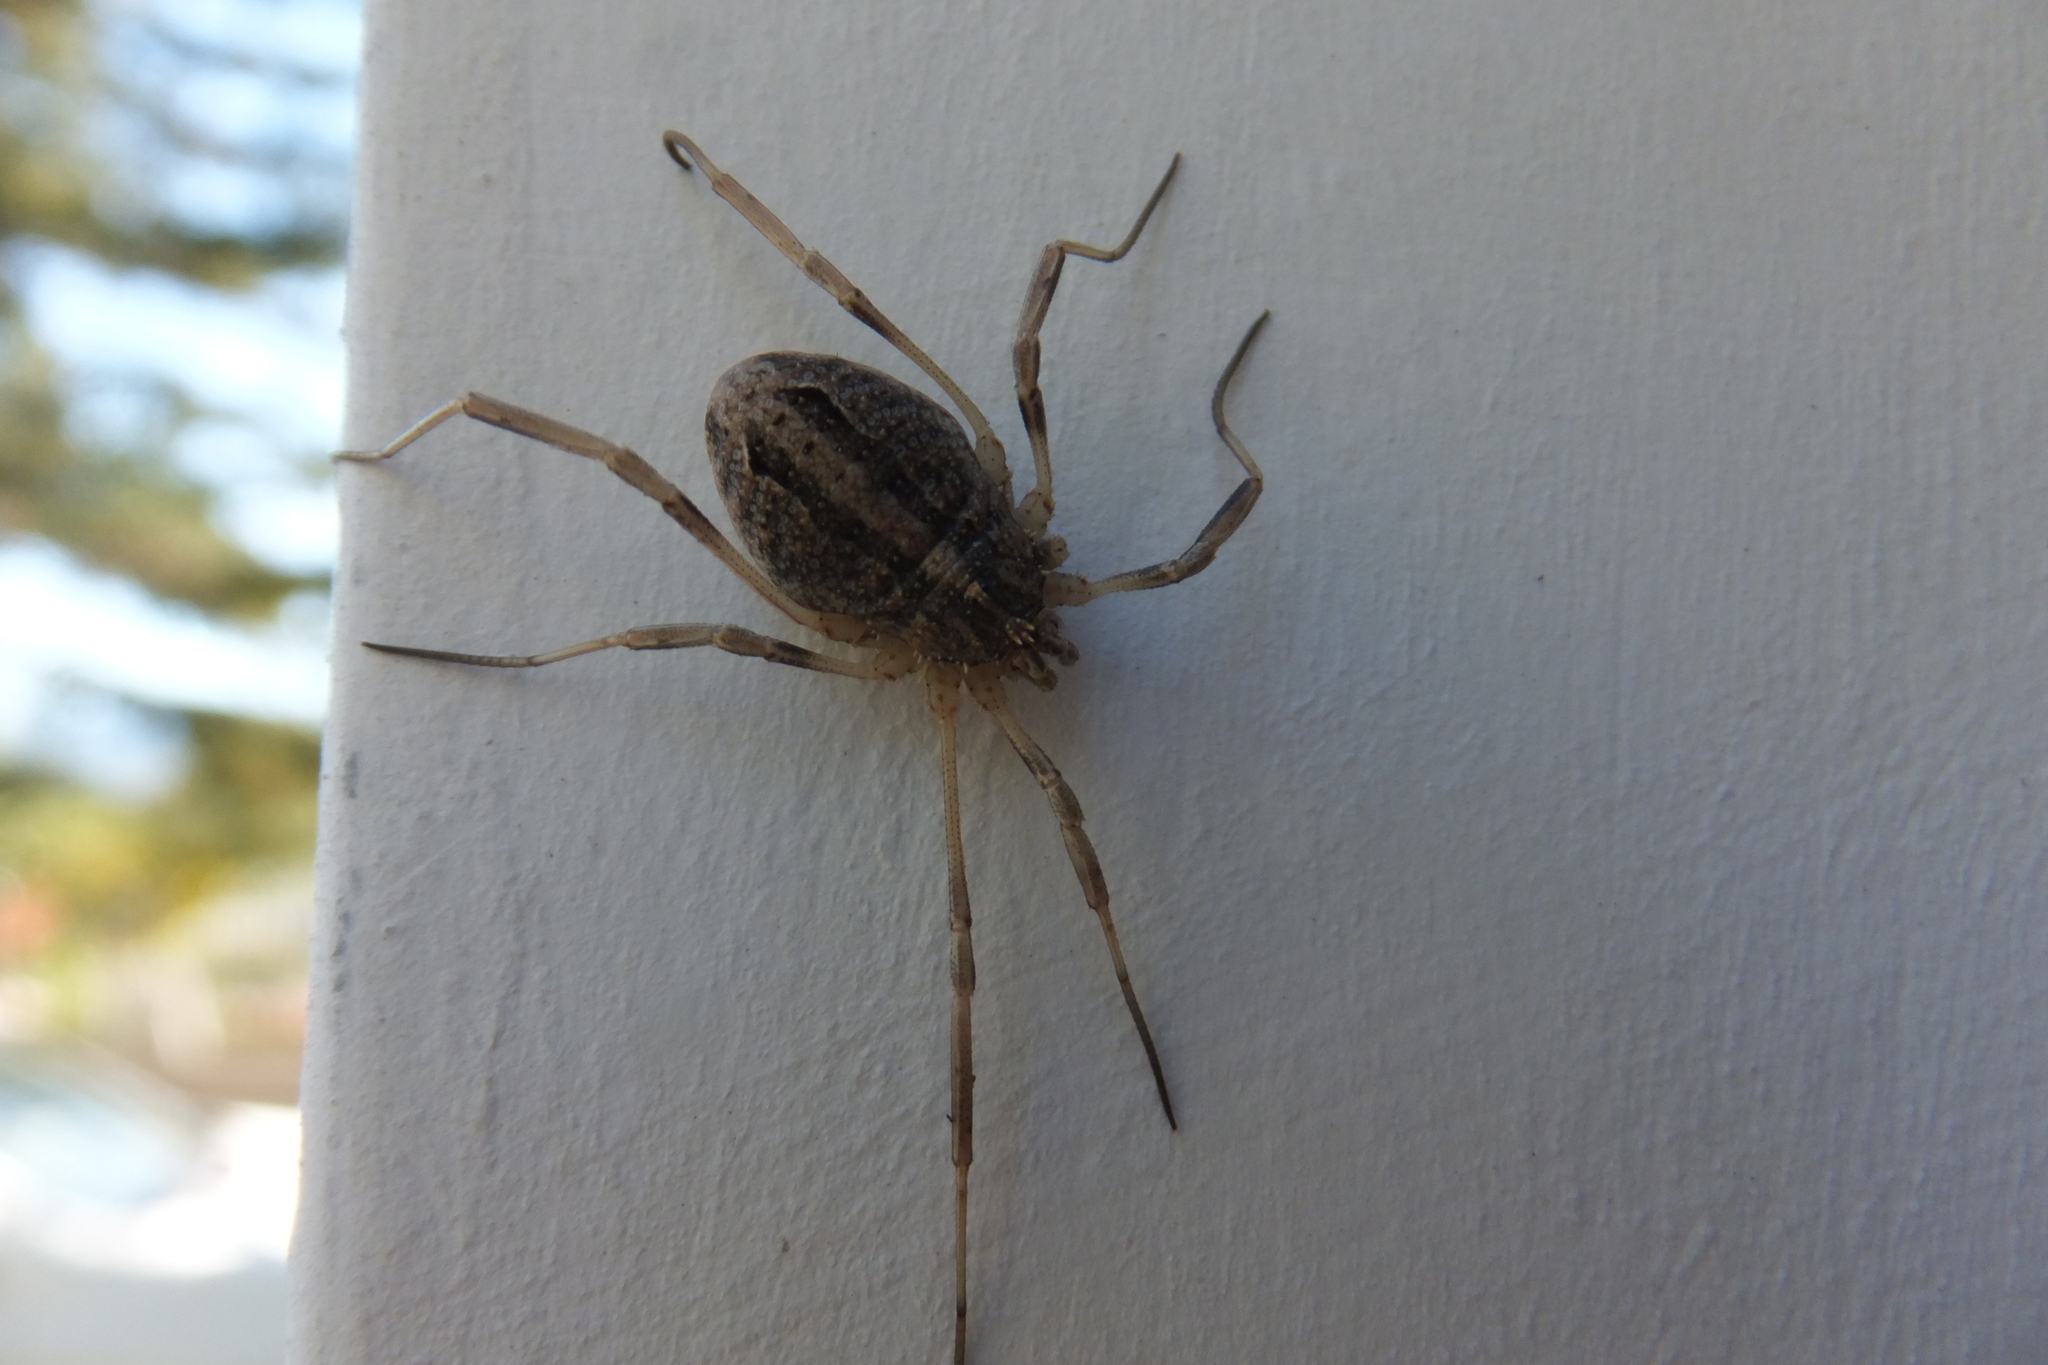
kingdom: Animalia
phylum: Arthropoda
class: Arachnida
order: Opiliones
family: Phalangiidae
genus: Odiellus
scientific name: Odiellus troguloides
